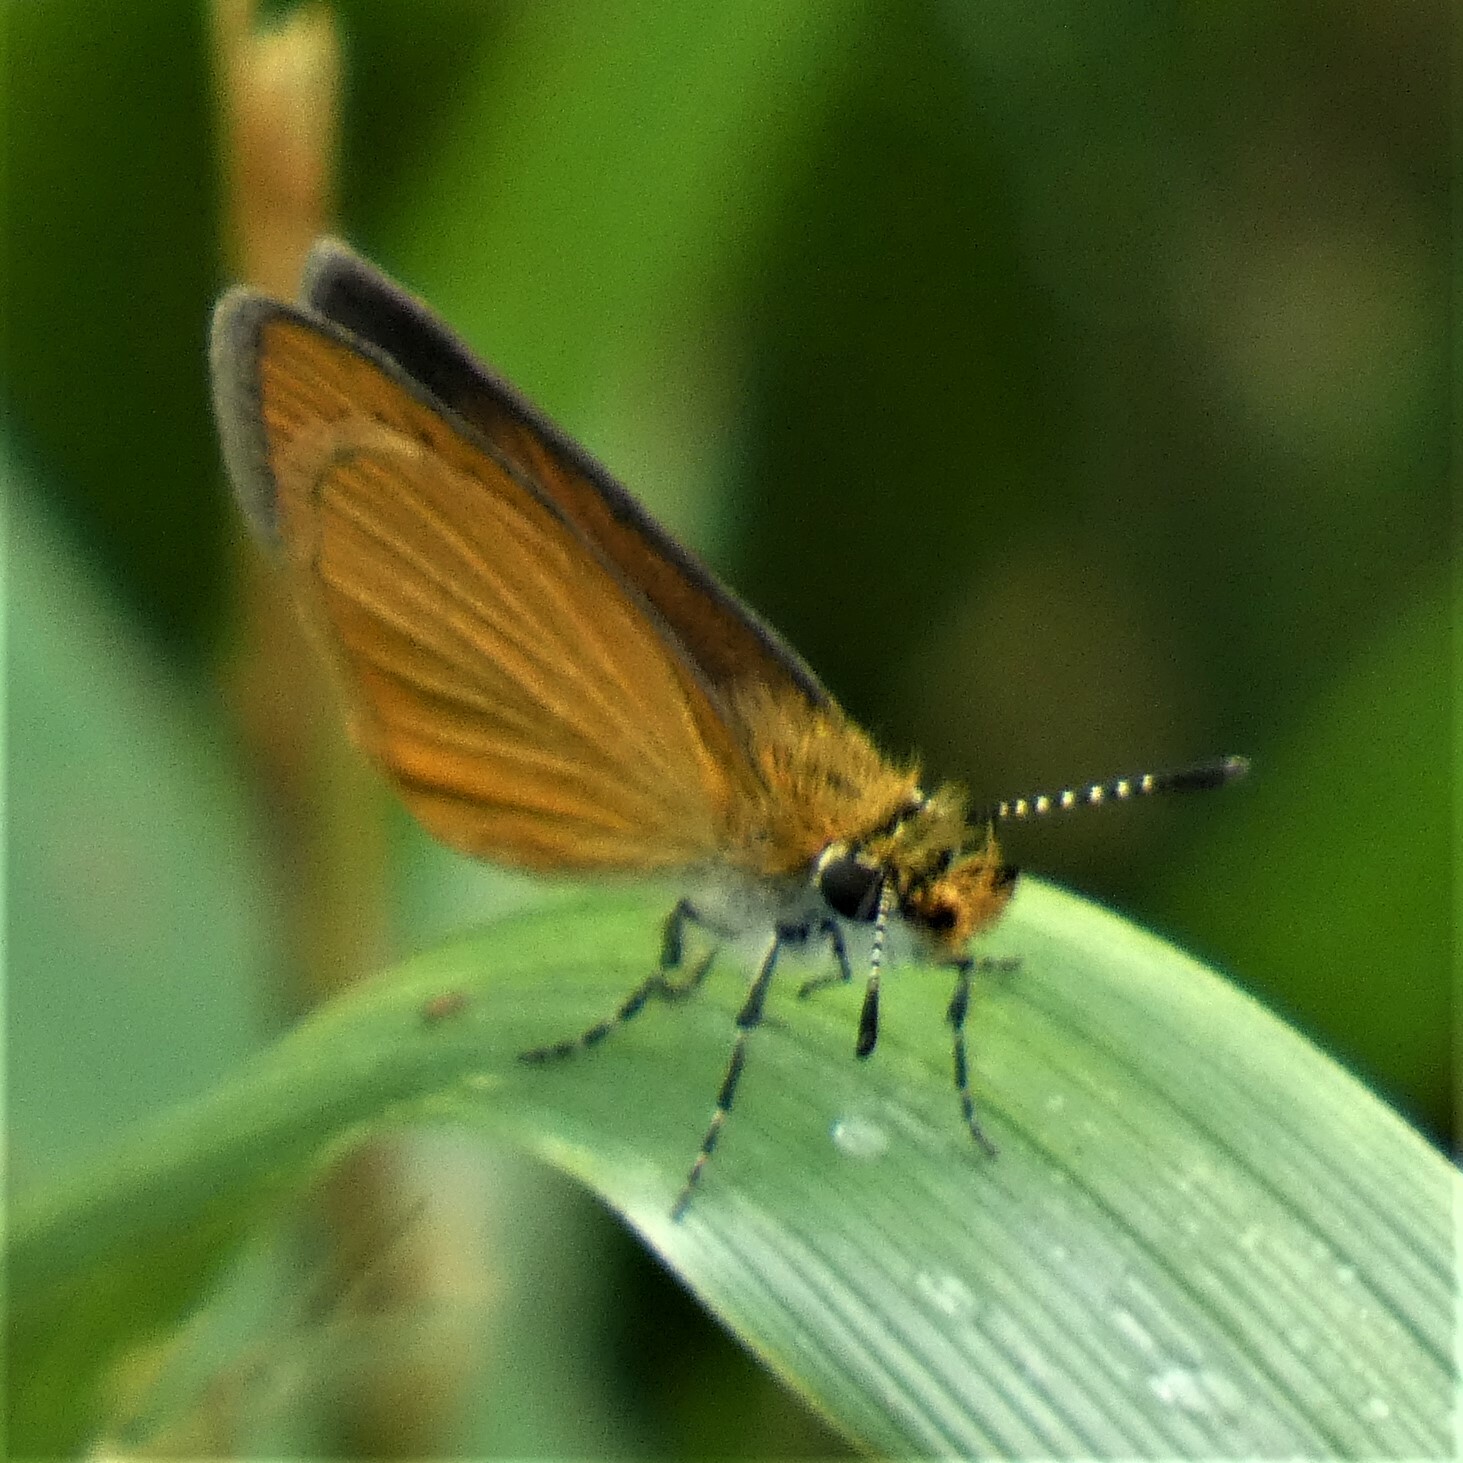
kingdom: Animalia
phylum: Arthropoda
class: Insecta
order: Lepidoptera
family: Hesperiidae
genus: Ancyloxypha
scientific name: Ancyloxypha numitor
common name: Least skipper
